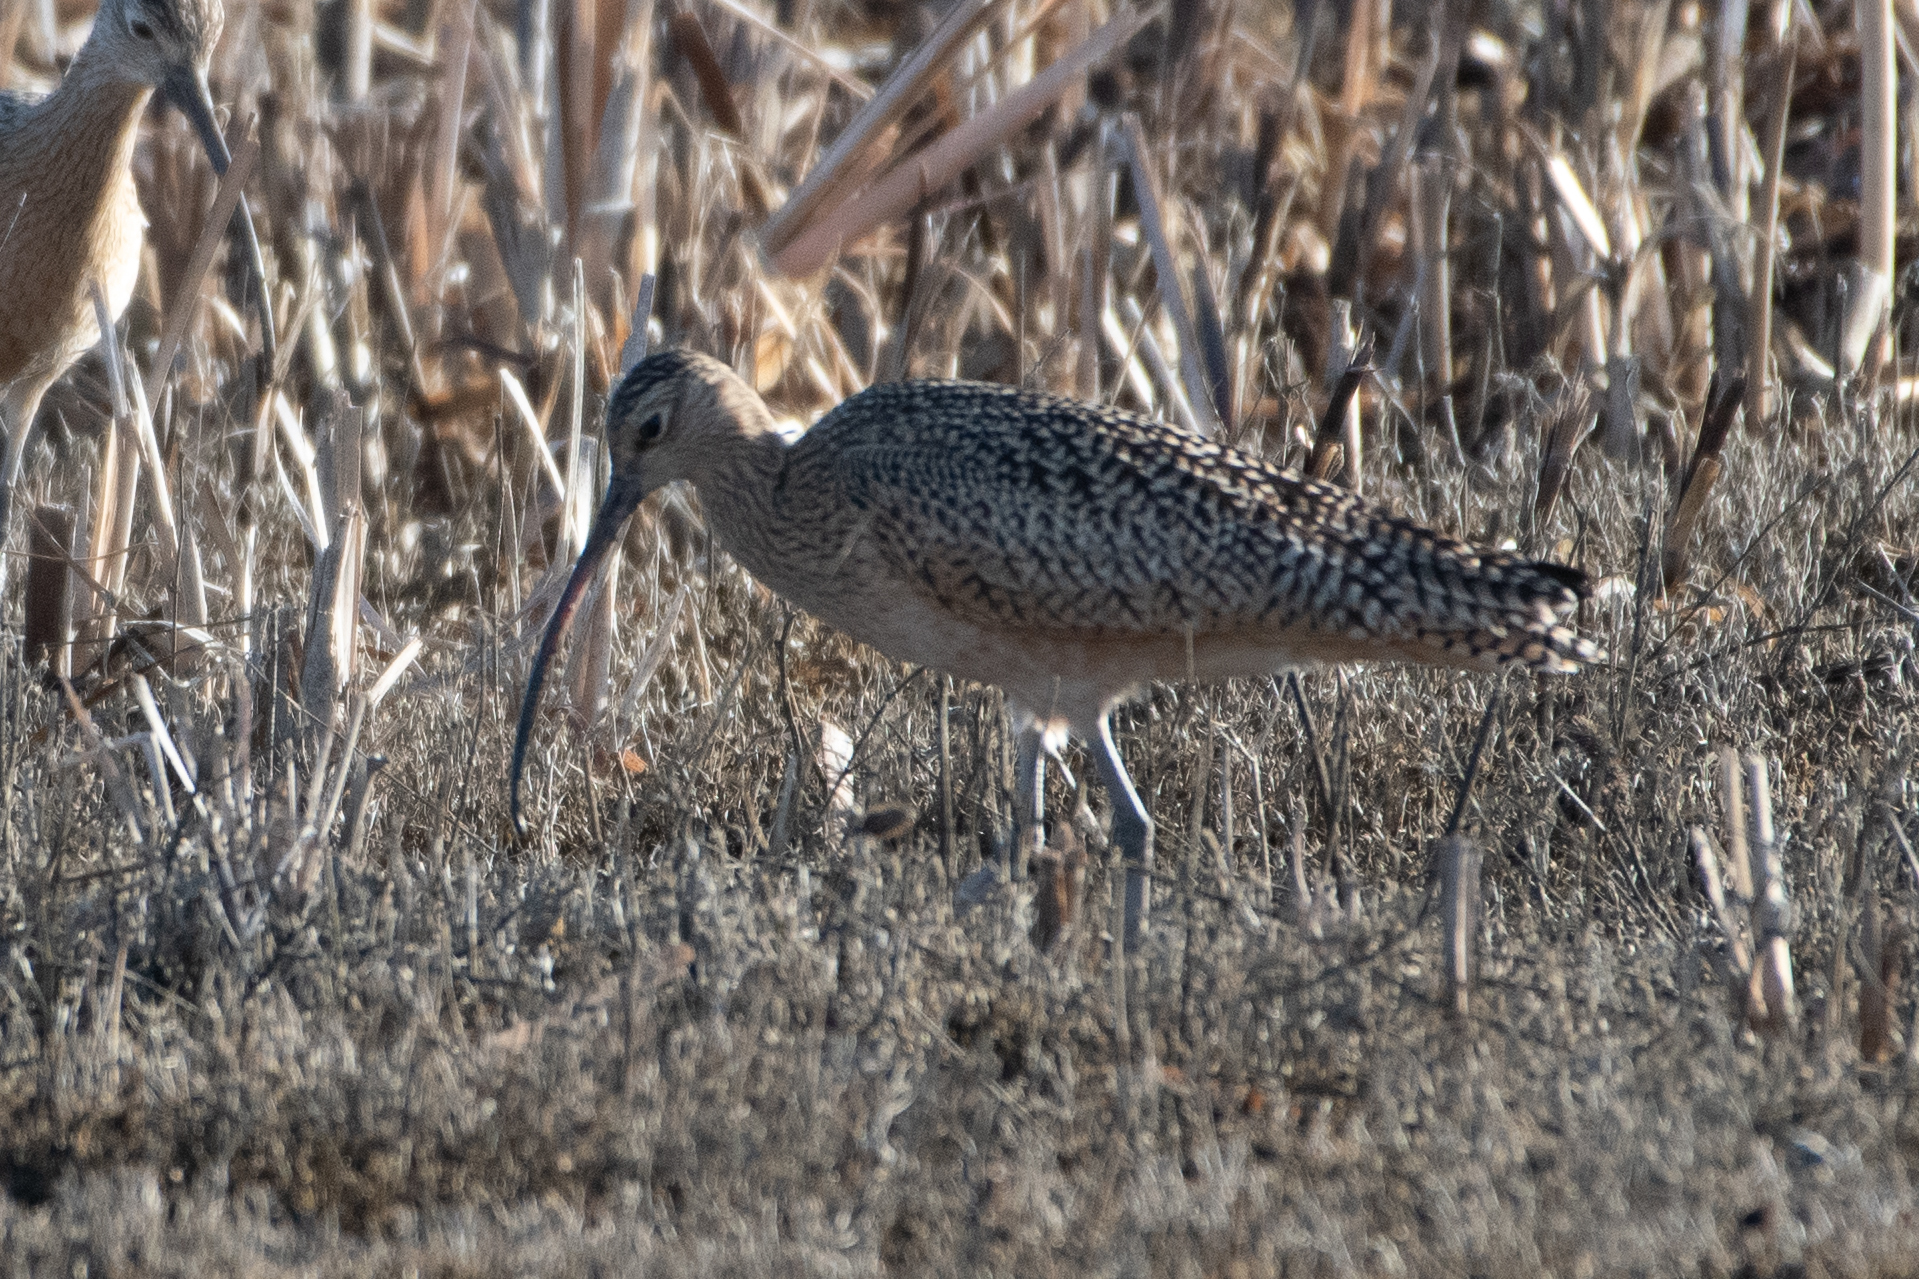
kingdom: Animalia
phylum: Chordata
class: Aves
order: Charadriiformes
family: Scolopacidae
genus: Numenius
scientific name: Numenius americanus
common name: Long-billed curlew
